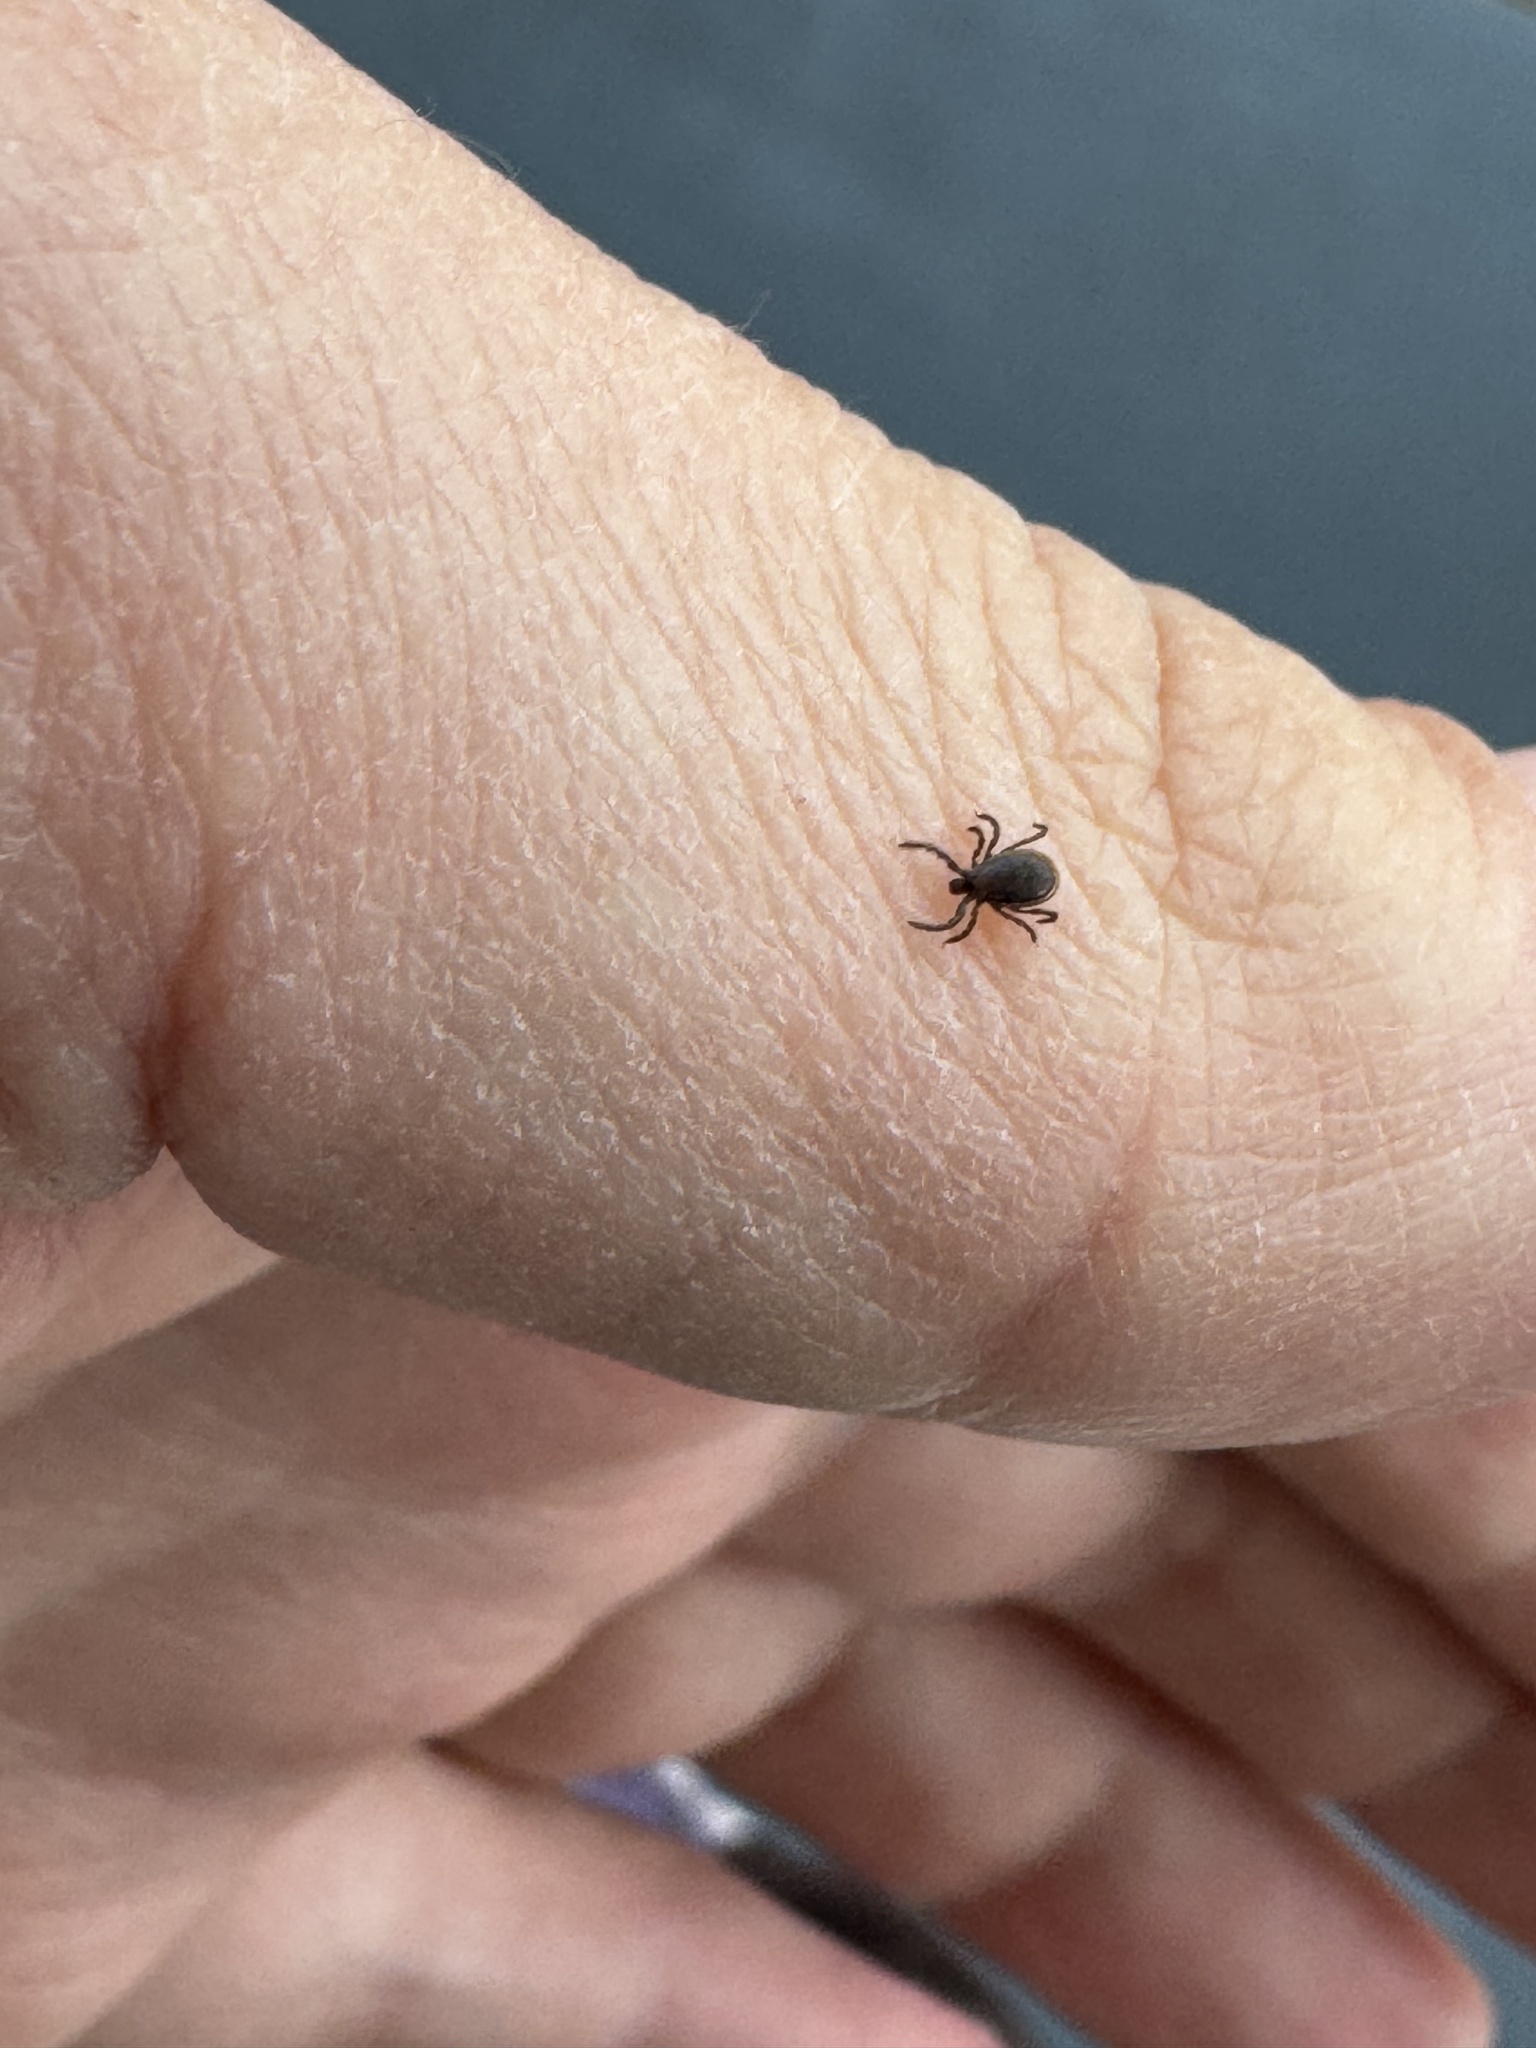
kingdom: Animalia
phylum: Arthropoda
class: Arachnida
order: Ixodida
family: Ixodidae
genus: Ixodes
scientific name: Ixodes scapularis
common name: Black legged tick
